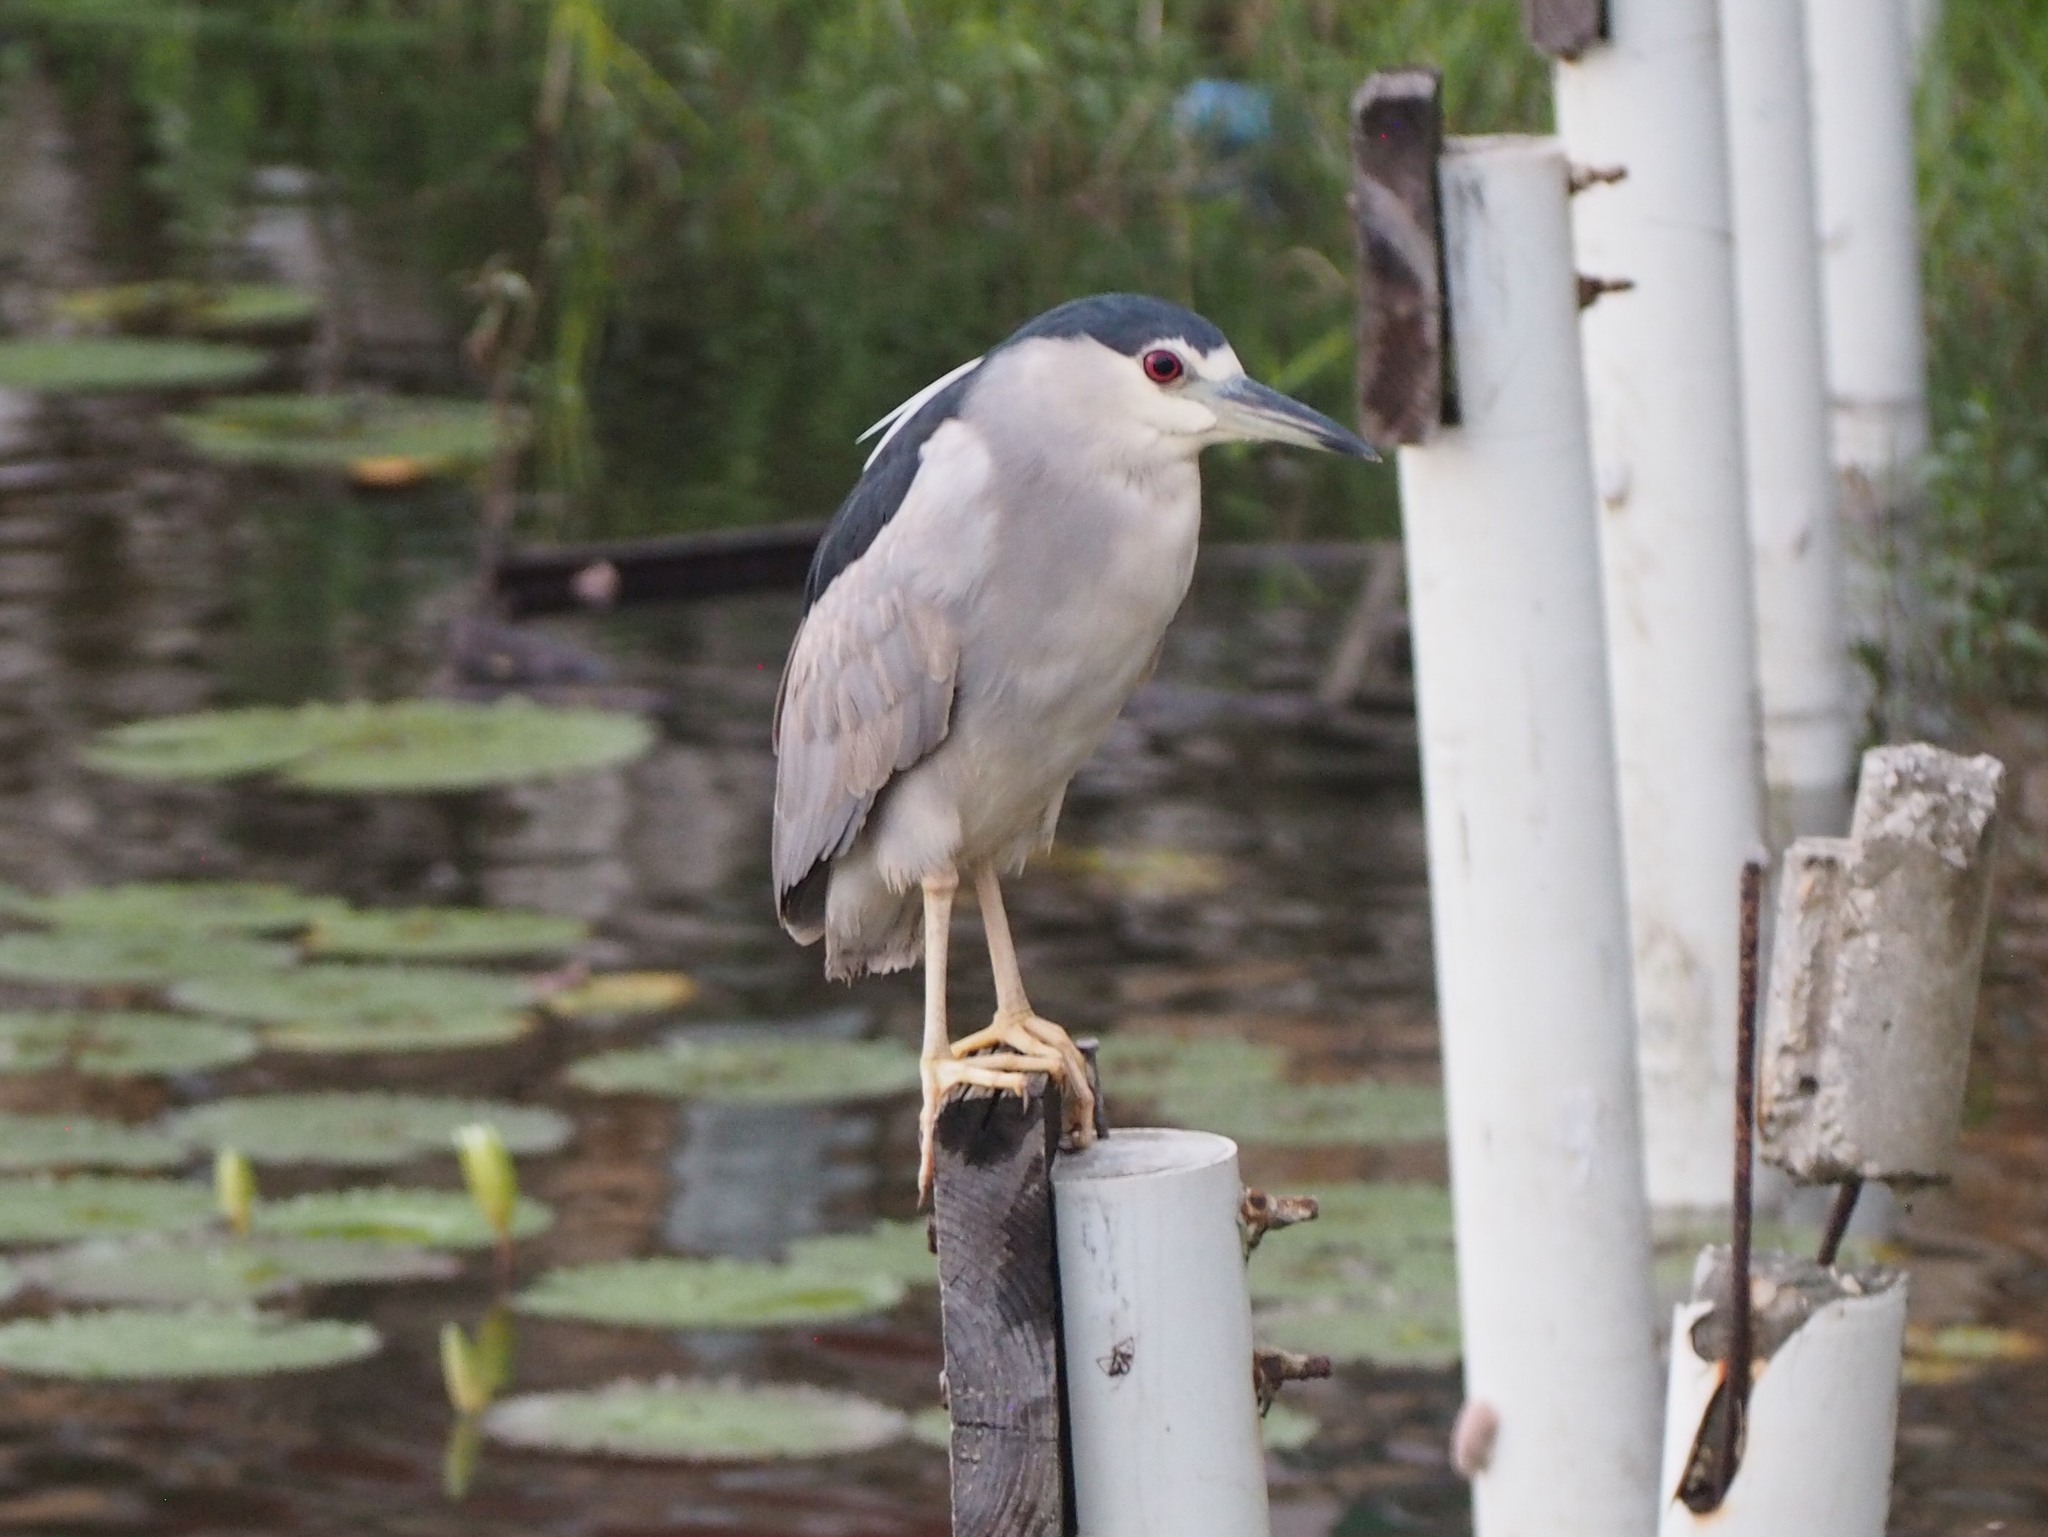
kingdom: Animalia
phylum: Chordata
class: Aves
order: Pelecaniformes
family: Ardeidae
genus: Nycticorax
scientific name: Nycticorax nycticorax
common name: Black-crowned night heron
